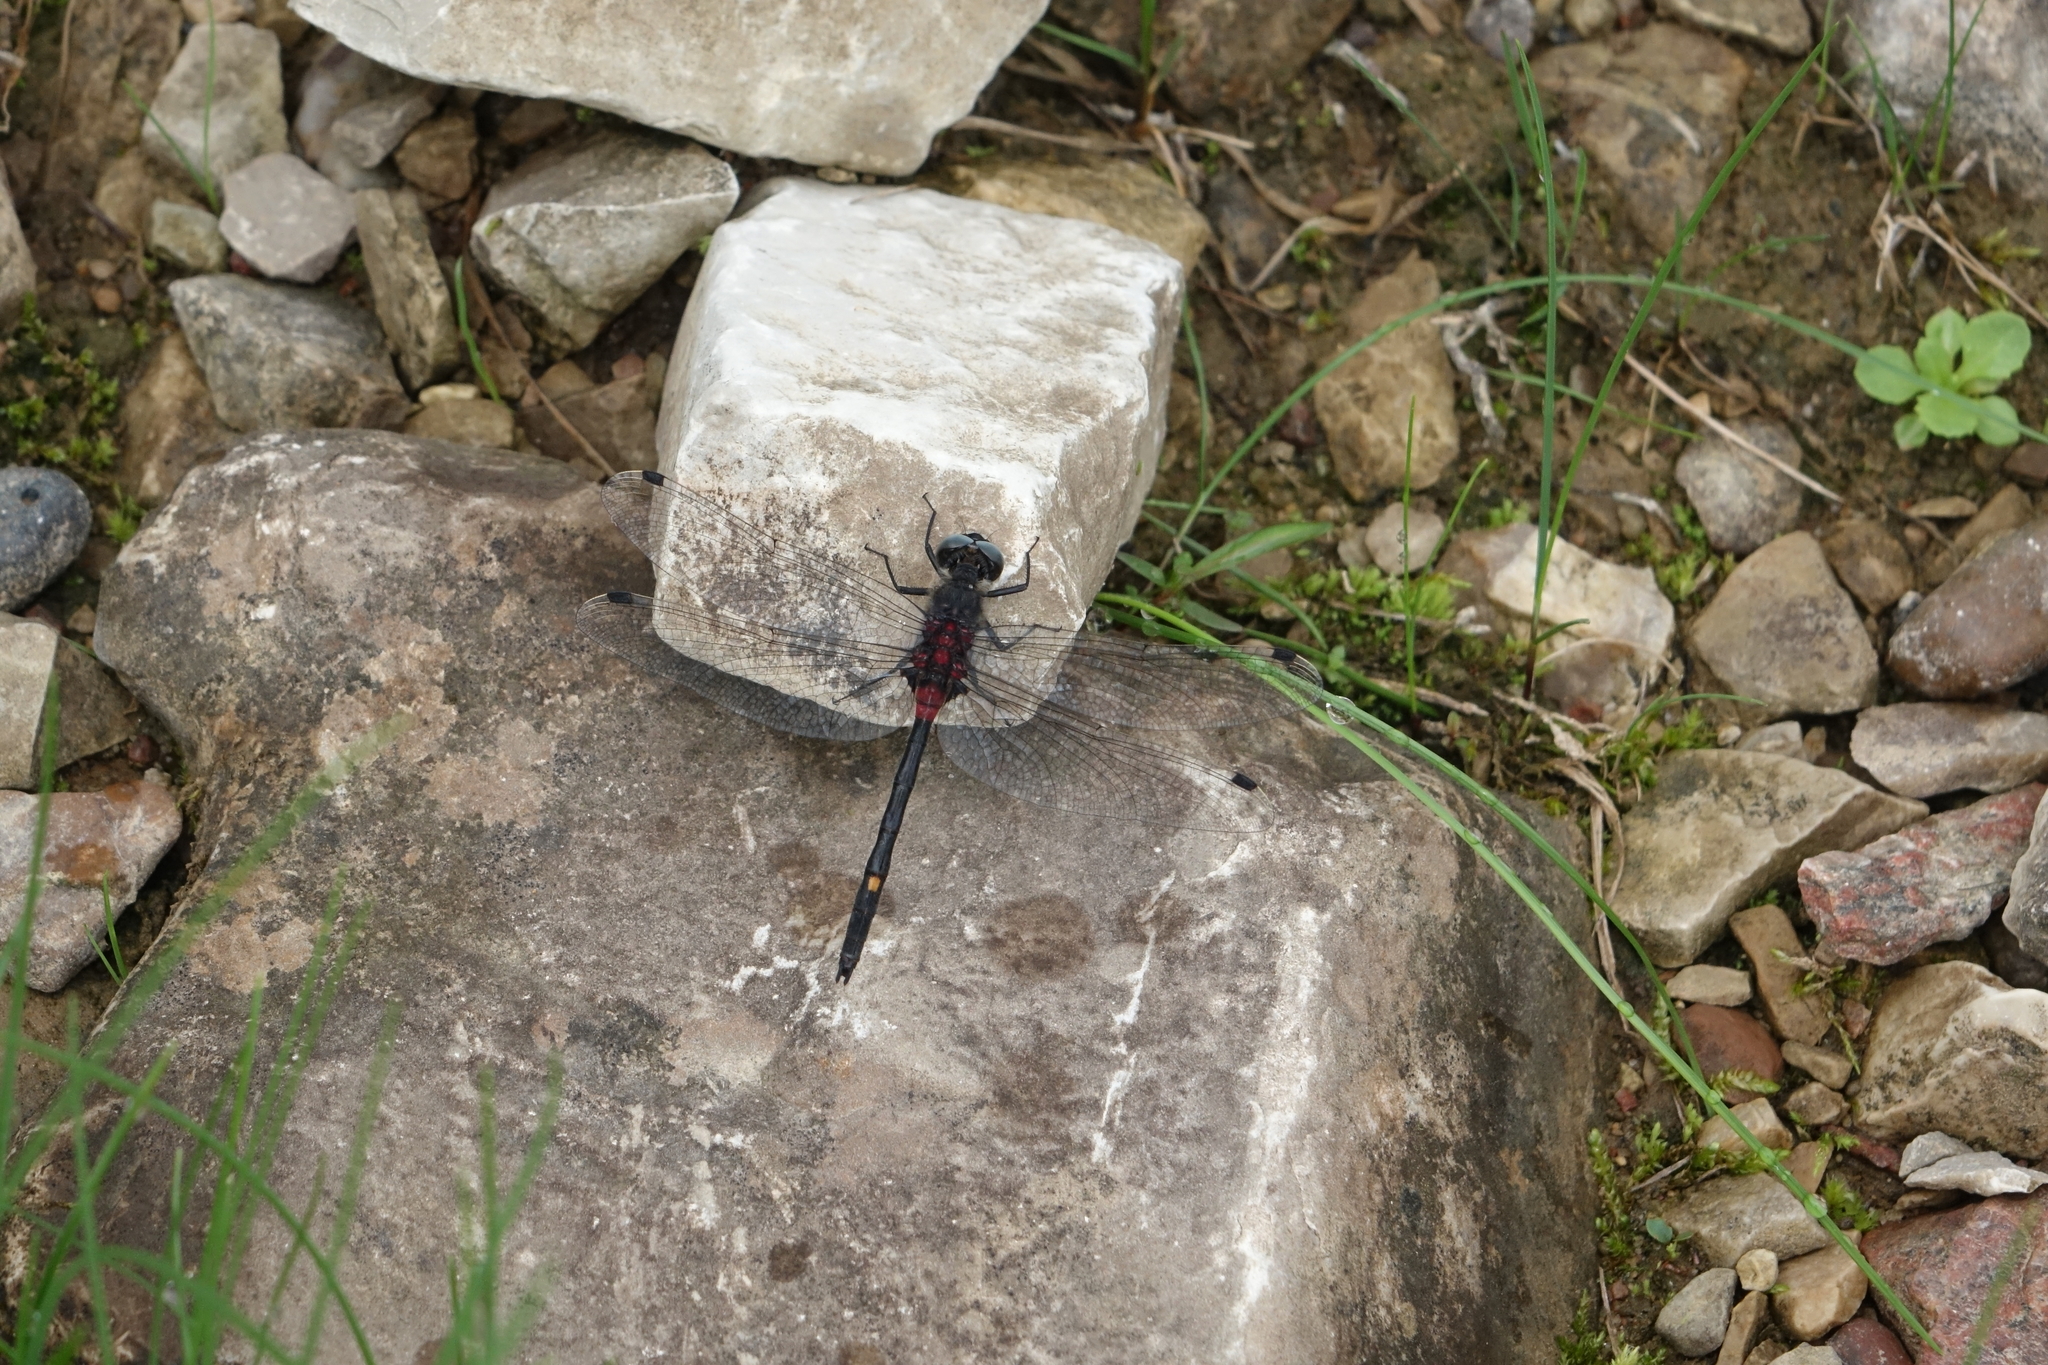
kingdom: Animalia
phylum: Arthropoda
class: Insecta
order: Odonata
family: Libellulidae
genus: Leucorrhinia
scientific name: Leucorrhinia orientalis
